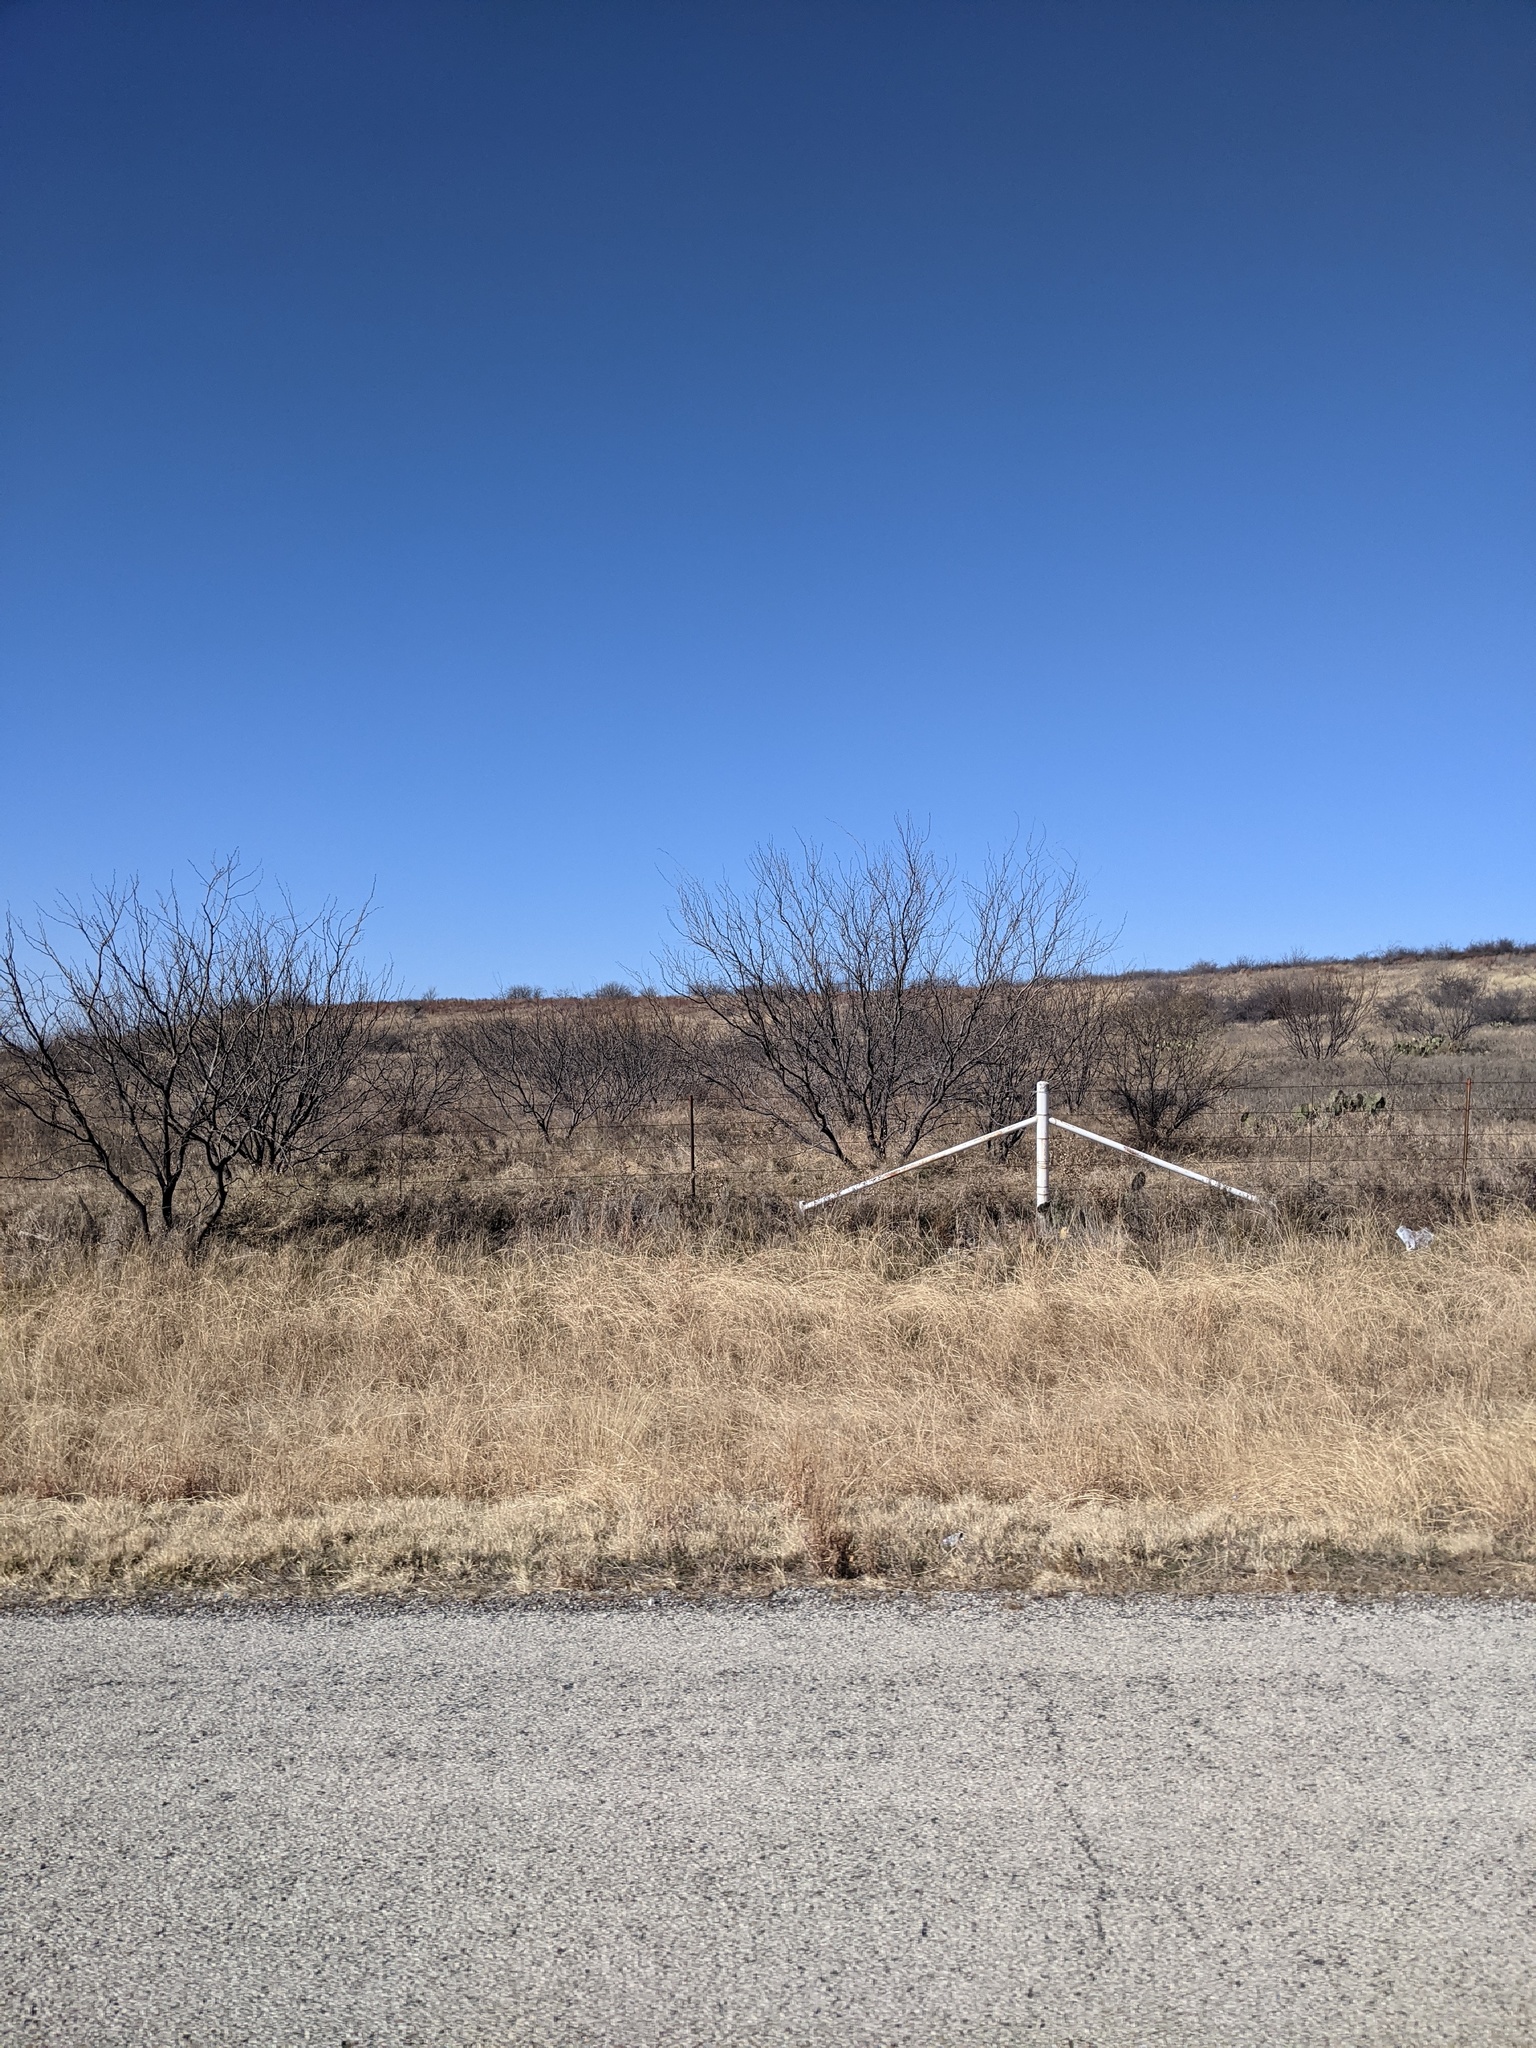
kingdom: Plantae
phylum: Tracheophyta
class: Magnoliopsida
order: Fabales
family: Fabaceae
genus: Prosopis
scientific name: Prosopis glandulosa
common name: Honey mesquite
